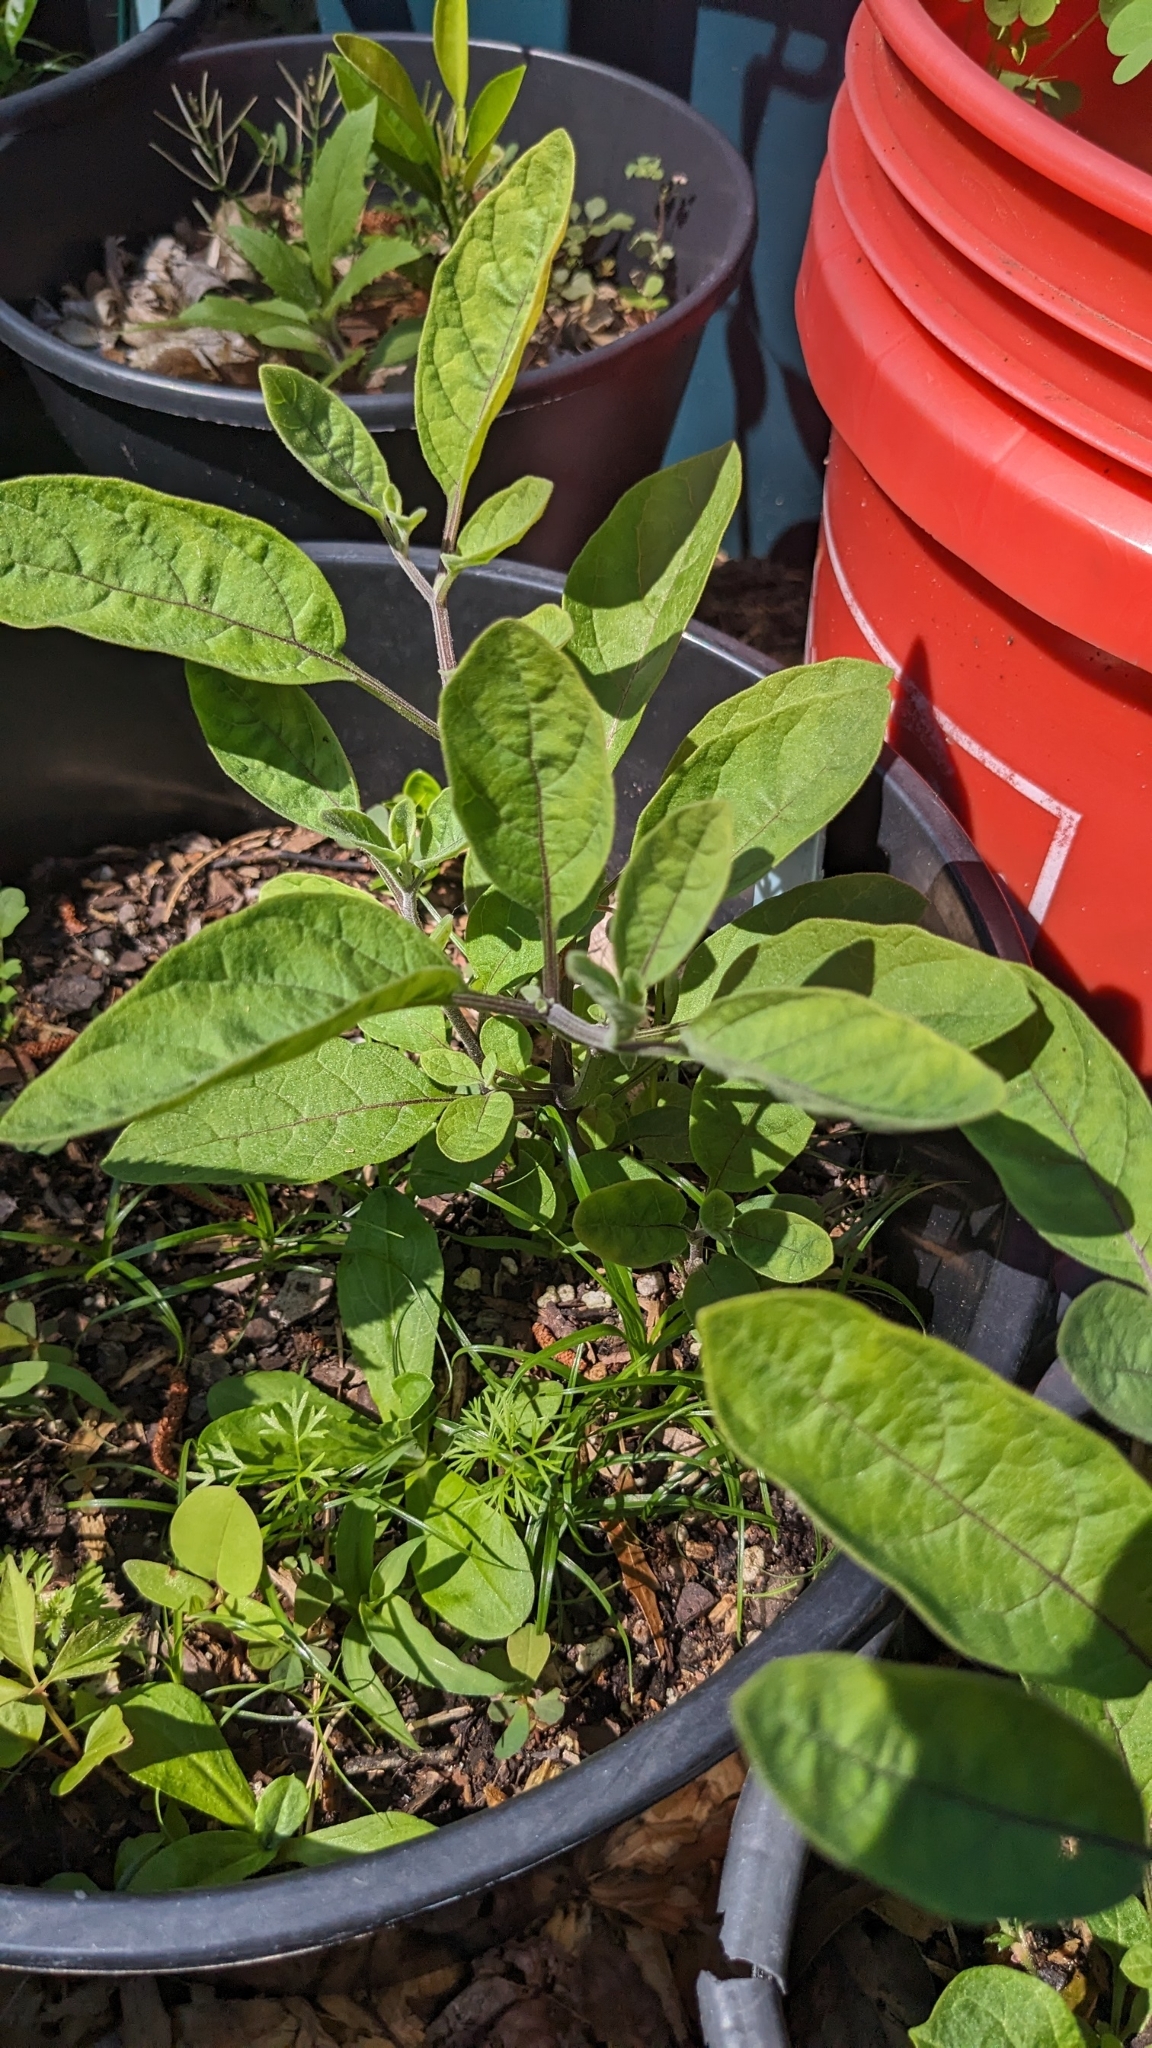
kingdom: Plantae
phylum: Tracheophyta
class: Magnoliopsida
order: Solanales
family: Solanaceae
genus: Physalis
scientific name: Physalis walteri
